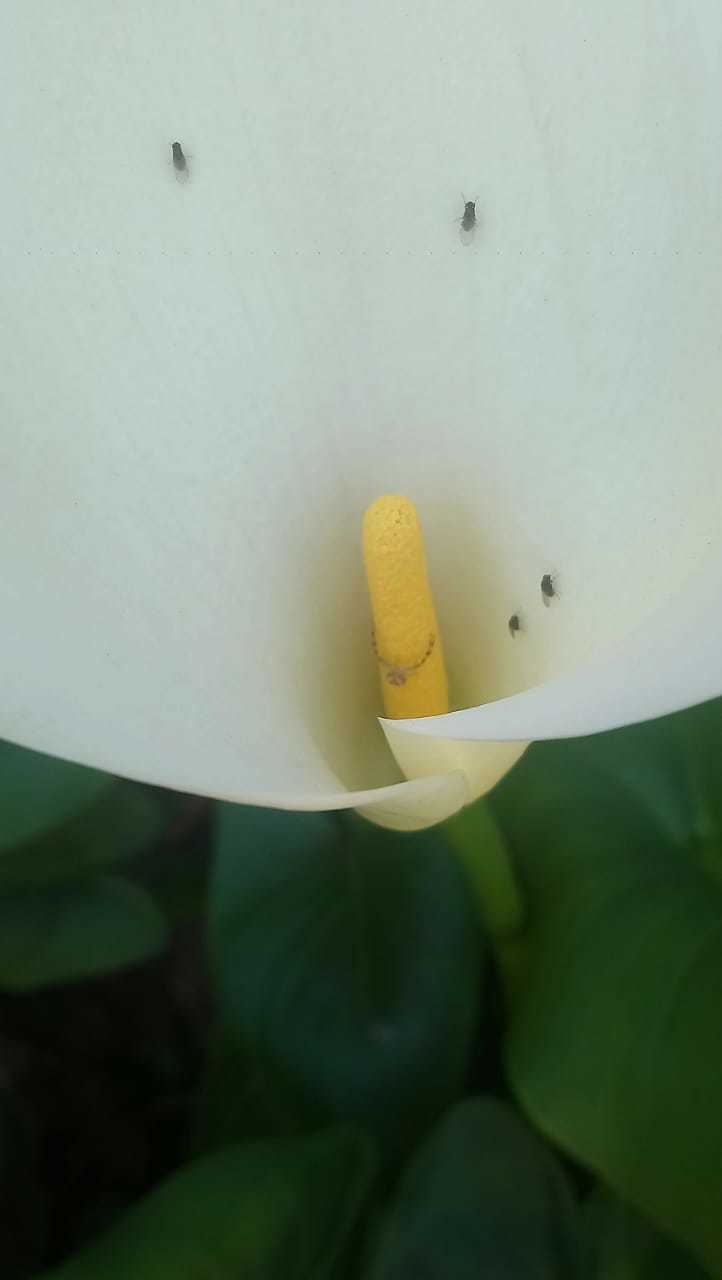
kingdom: Animalia
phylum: Arthropoda
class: Arachnida
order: Araneae
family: Thomisidae
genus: Misumenops
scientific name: Misumenops
